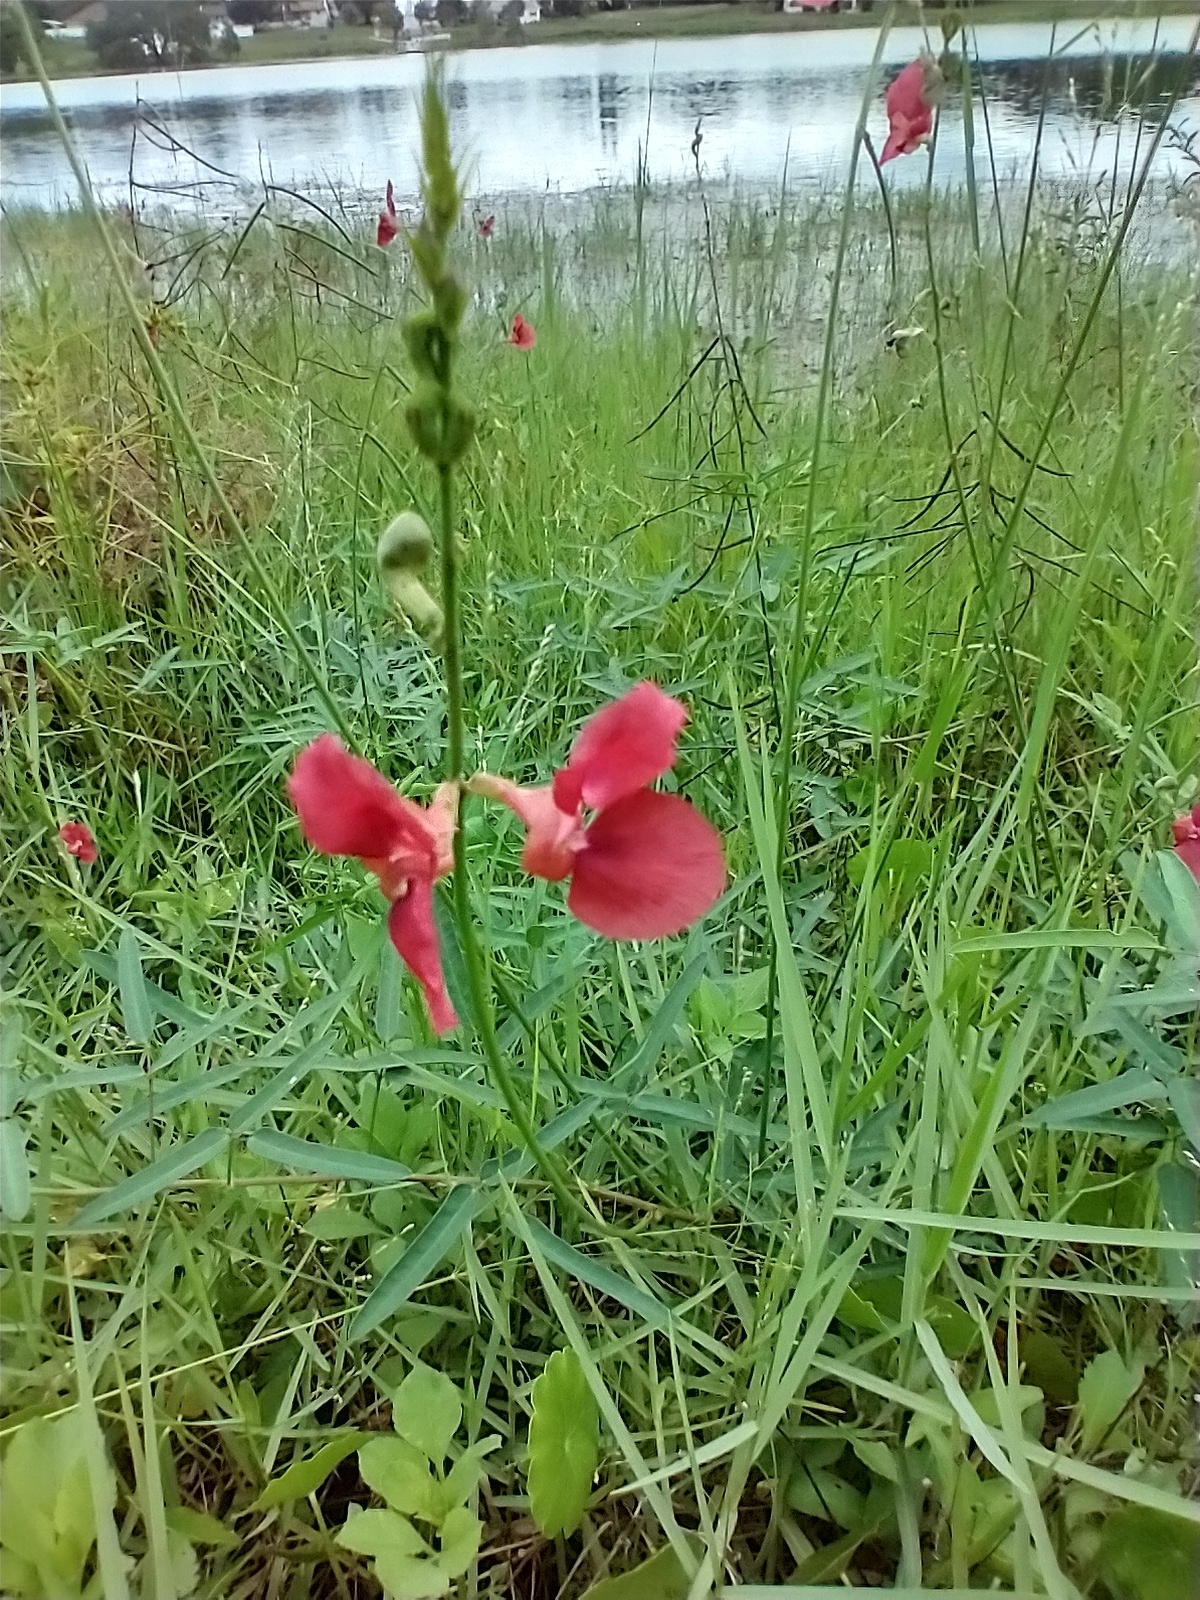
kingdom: Plantae
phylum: Tracheophyta
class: Magnoliopsida
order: Fabales
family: Fabaceae
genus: Macroptilium
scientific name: Macroptilium lathyroides
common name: Wild bushbean
